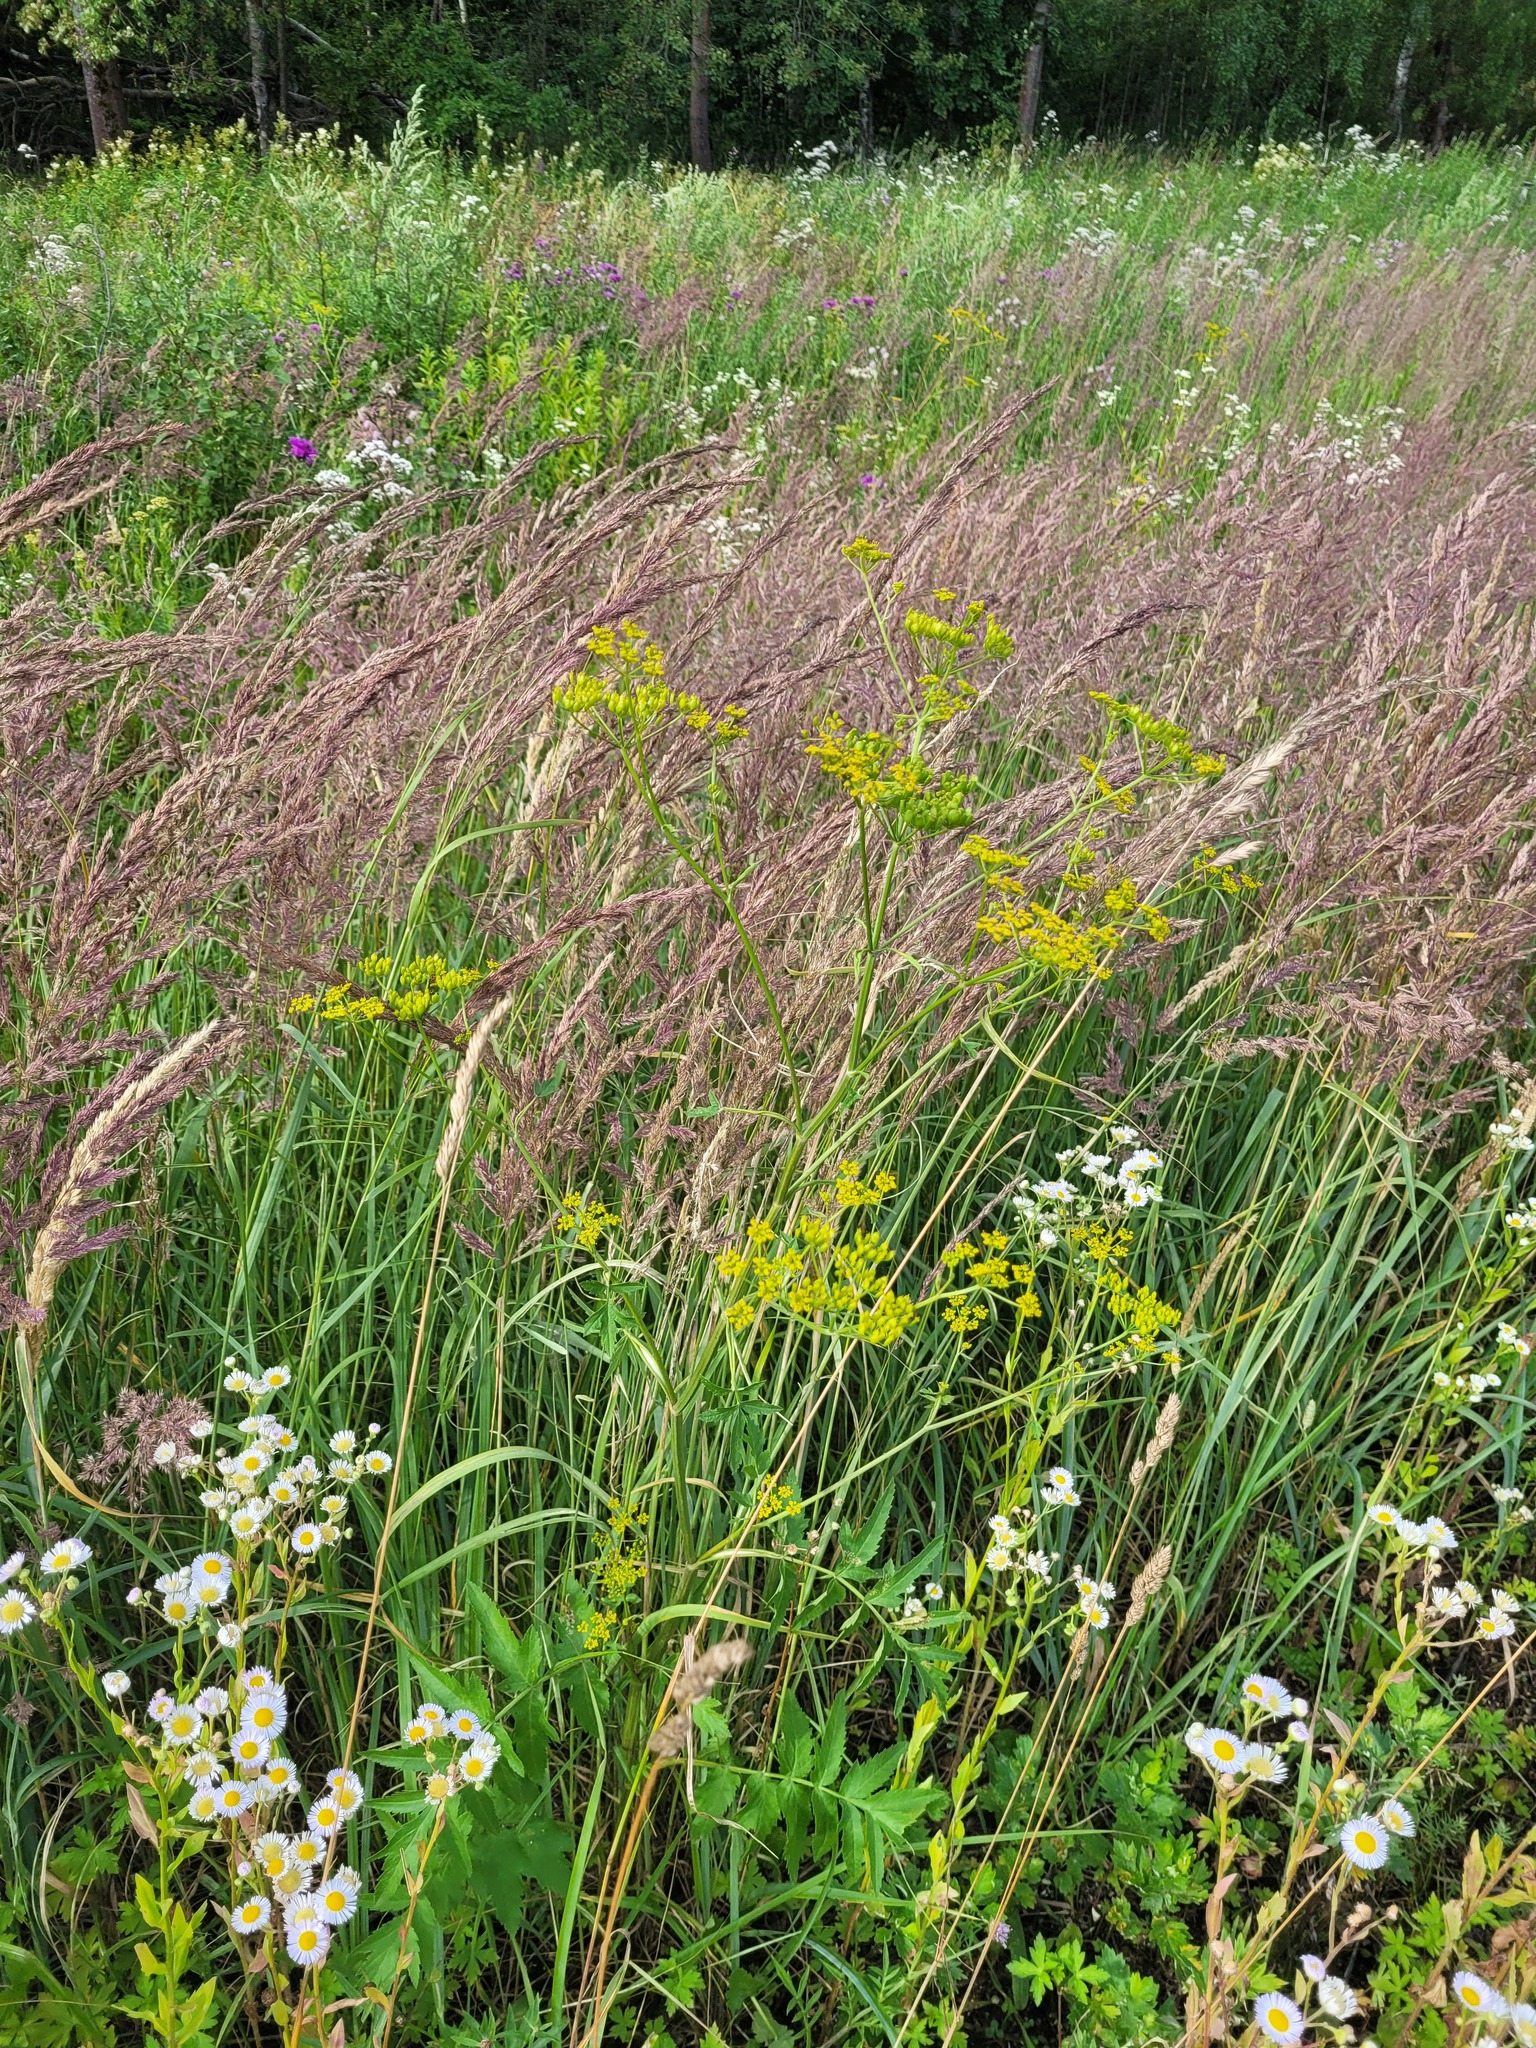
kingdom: Plantae
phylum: Tracheophyta
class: Magnoliopsida
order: Apiales
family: Apiaceae
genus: Pastinaca
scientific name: Pastinaca sativa
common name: Wild parsnip
